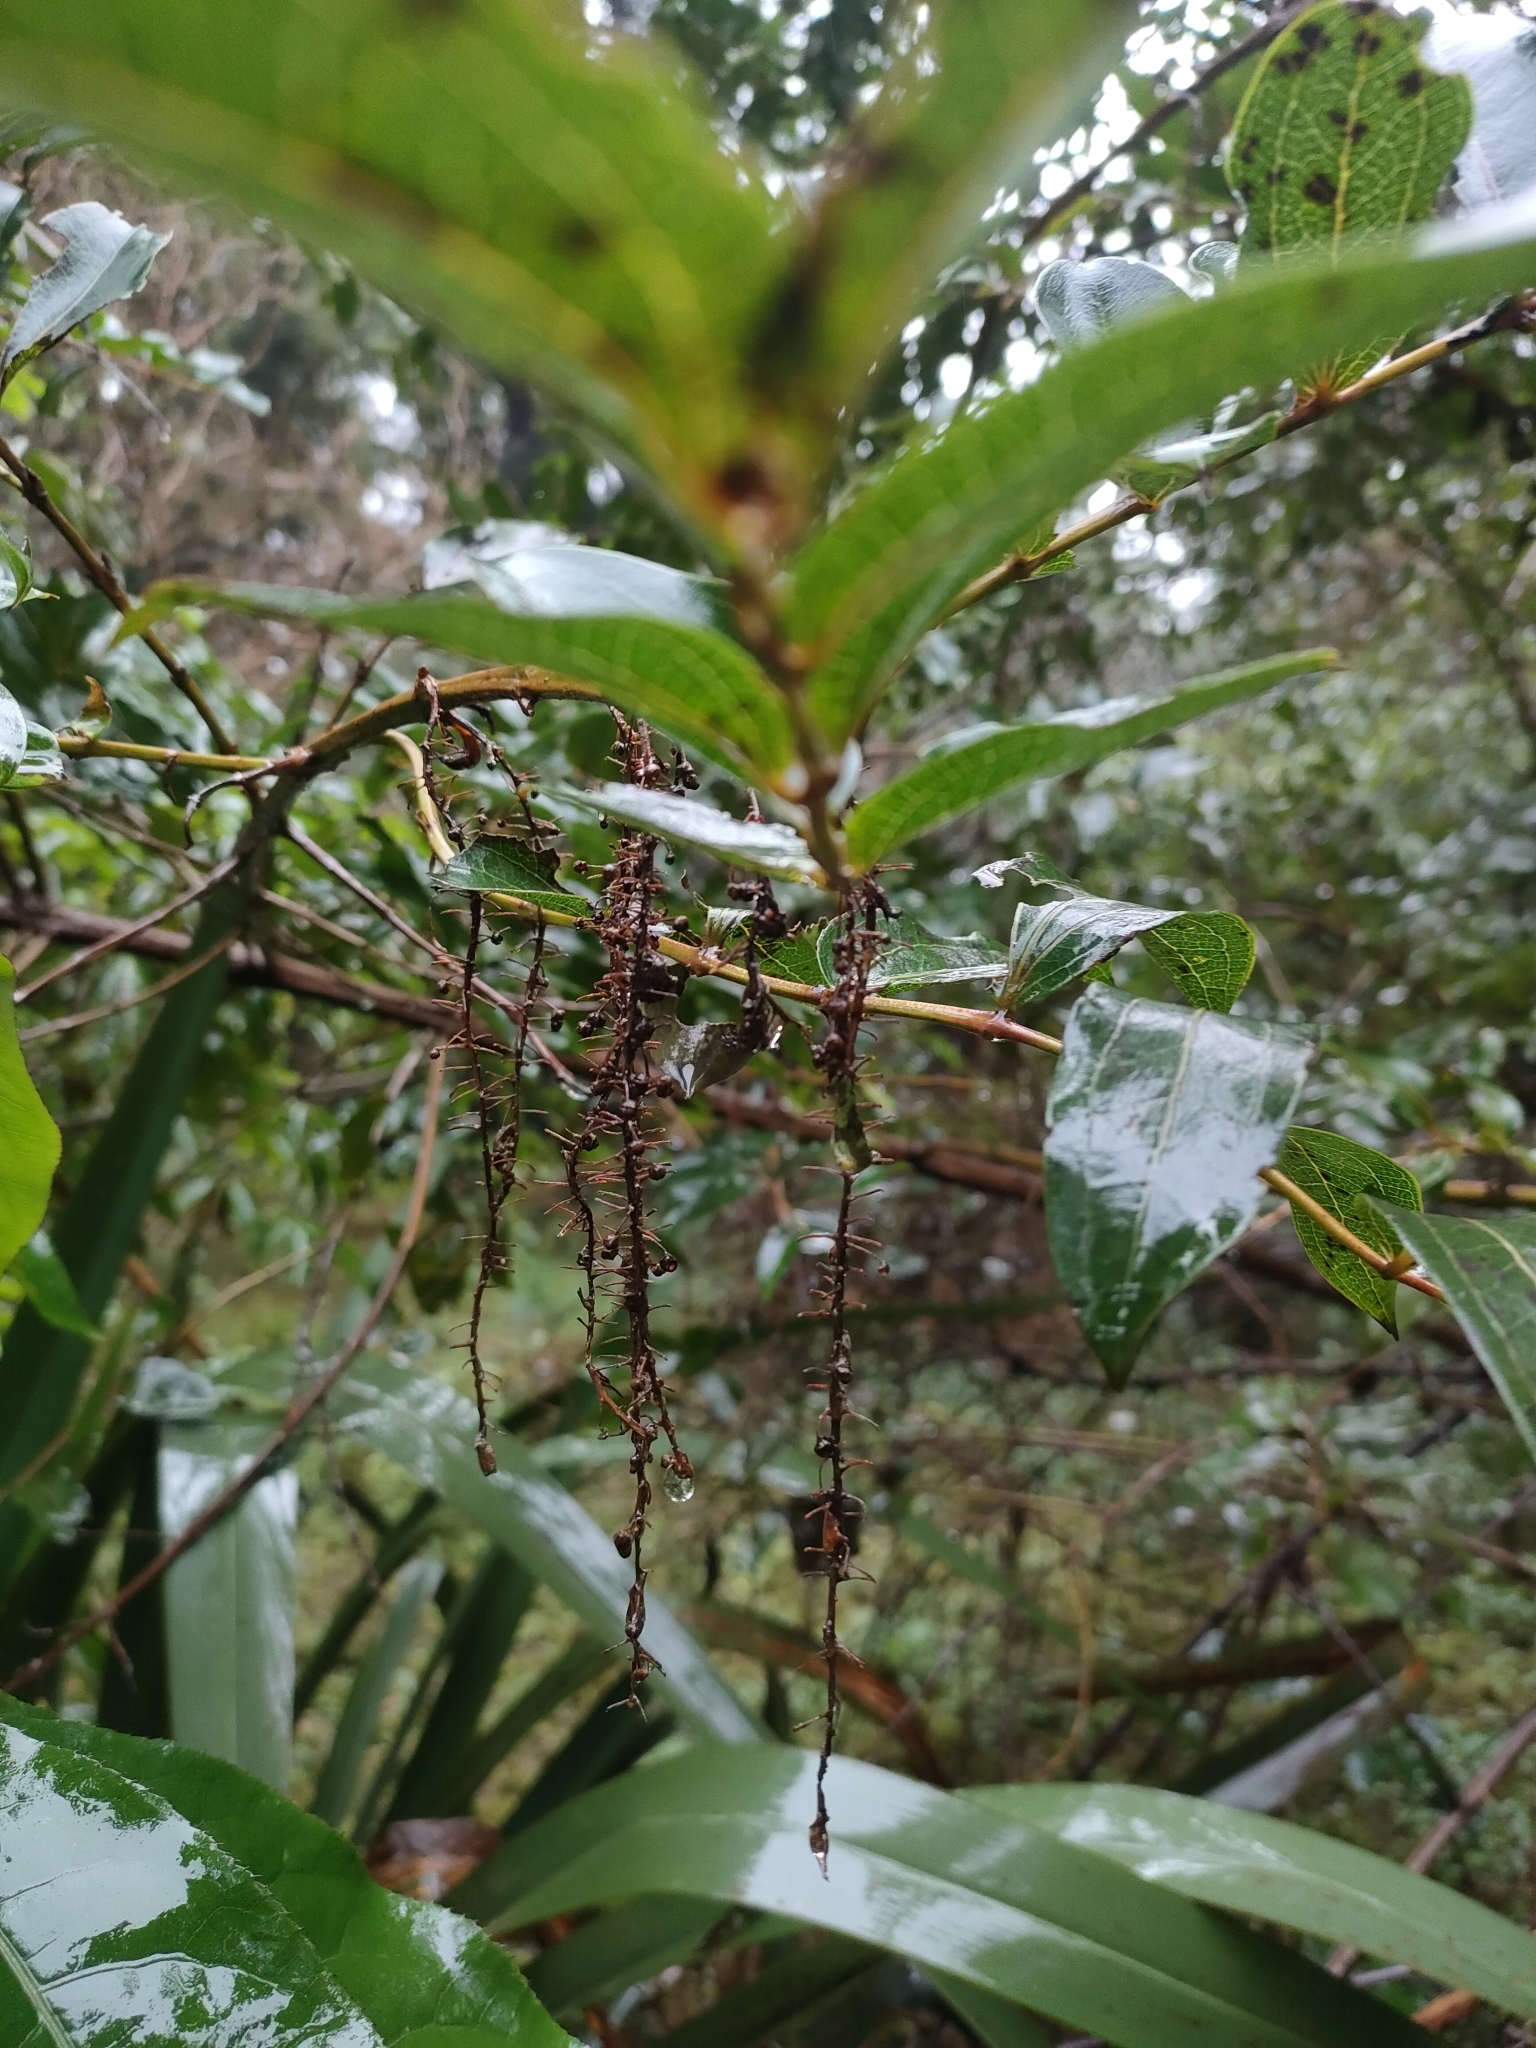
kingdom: Plantae
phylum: Tracheophyta
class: Magnoliopsida
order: Cucurbitales
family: Coriariaceae
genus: Coriaria
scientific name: Coriaria arborea
